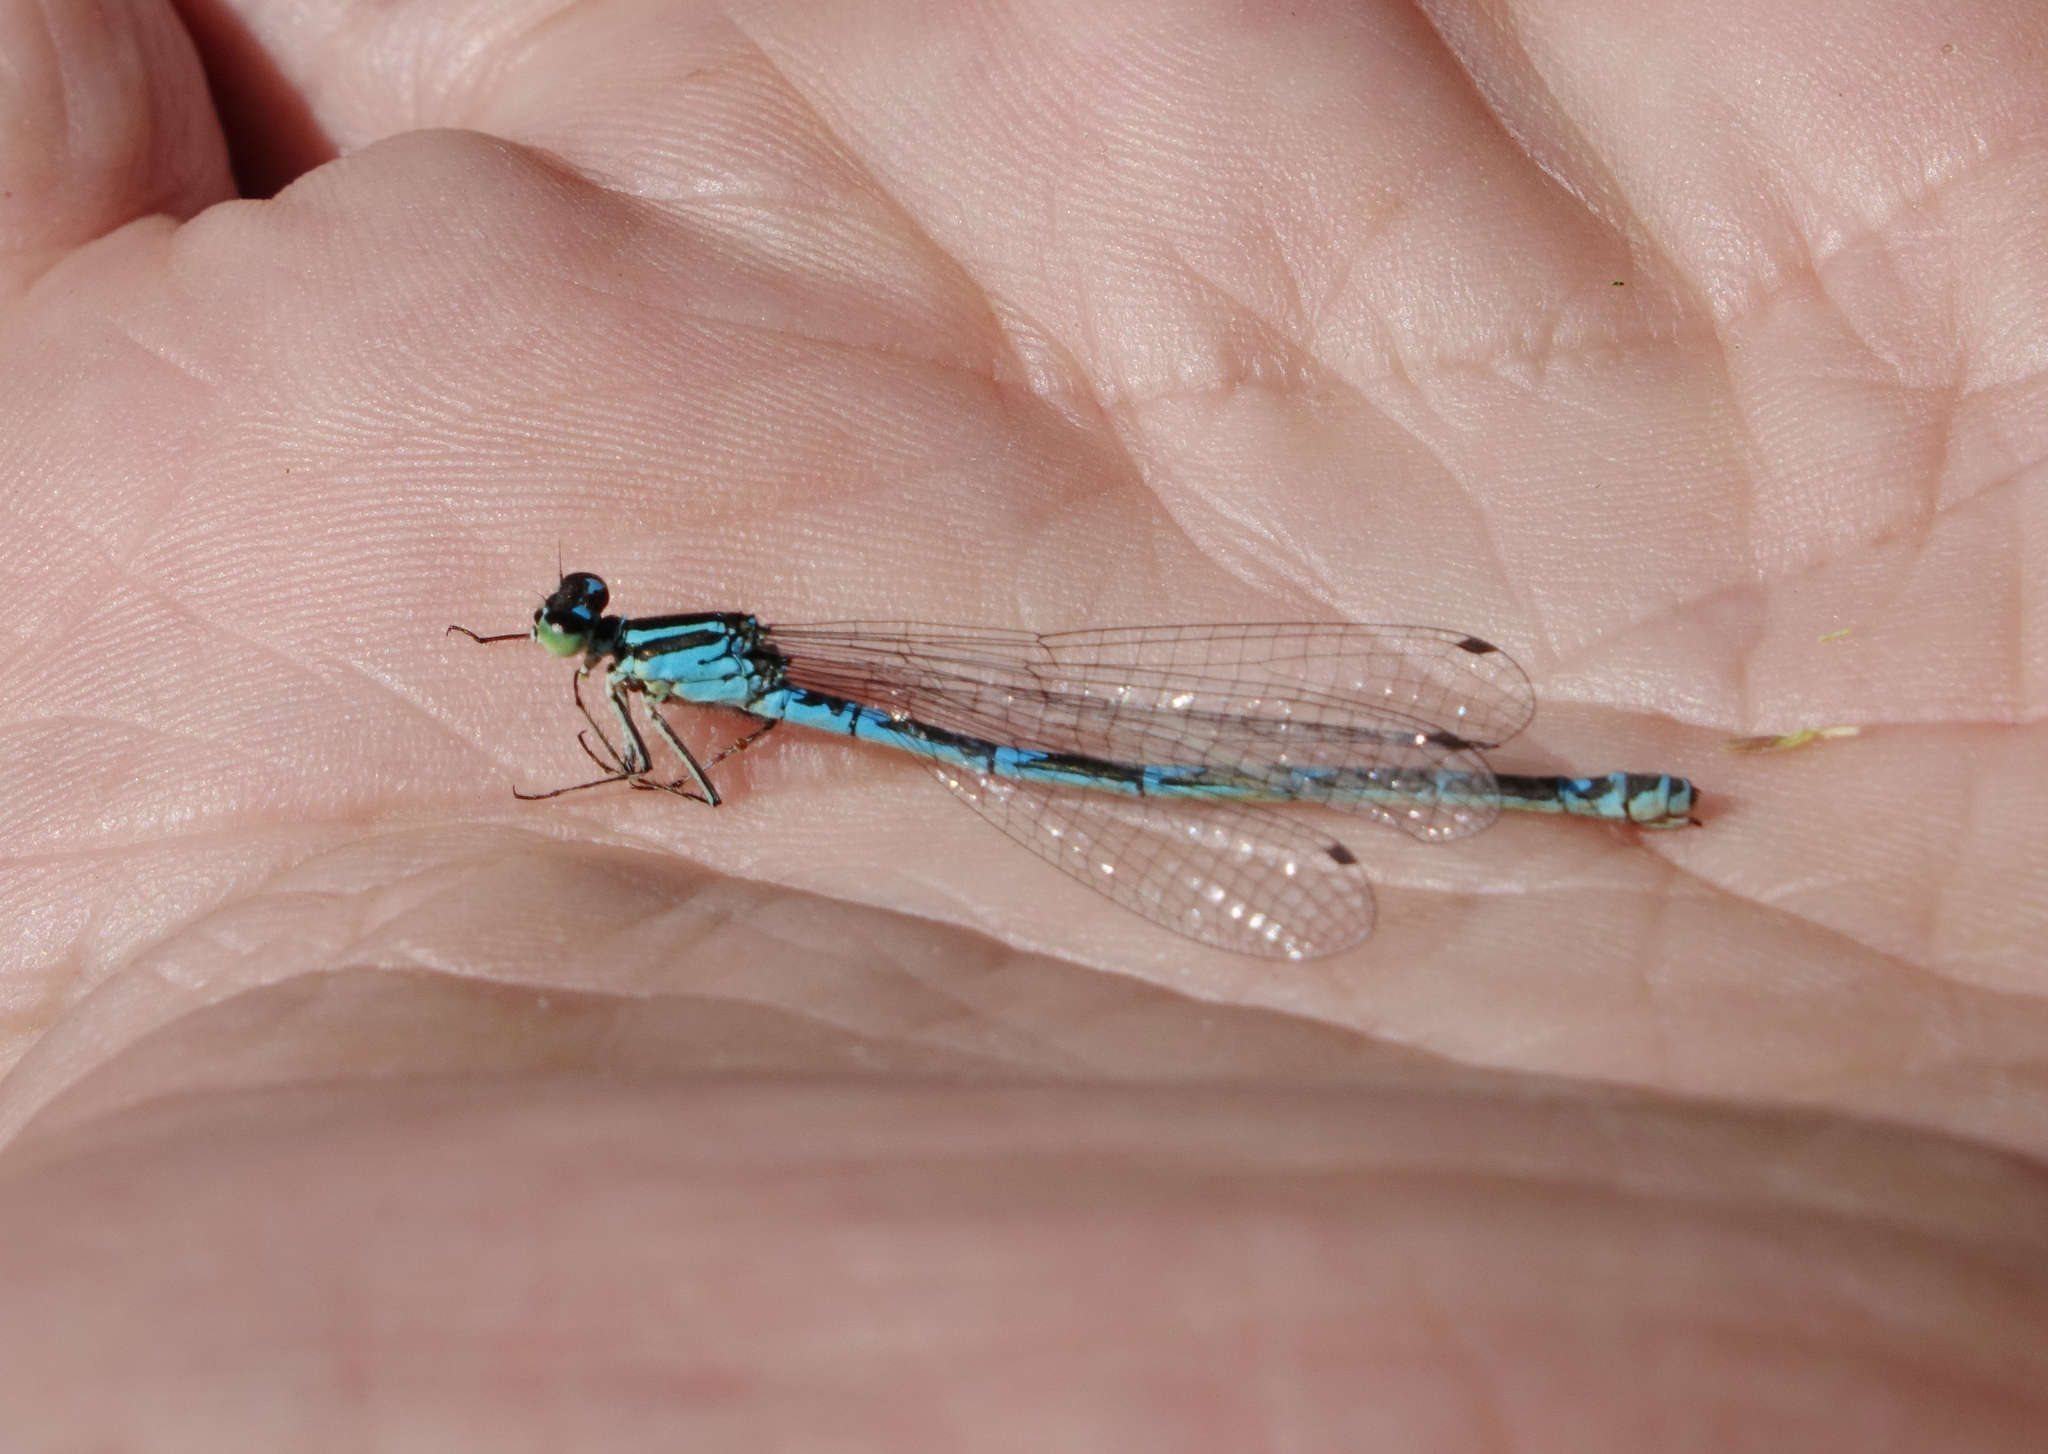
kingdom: Animalia
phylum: Arthropoda
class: Insecta
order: Odonata
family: Coenagrionidae
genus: Coenagrion
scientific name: Coenagrion puella
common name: Azure damselfly
